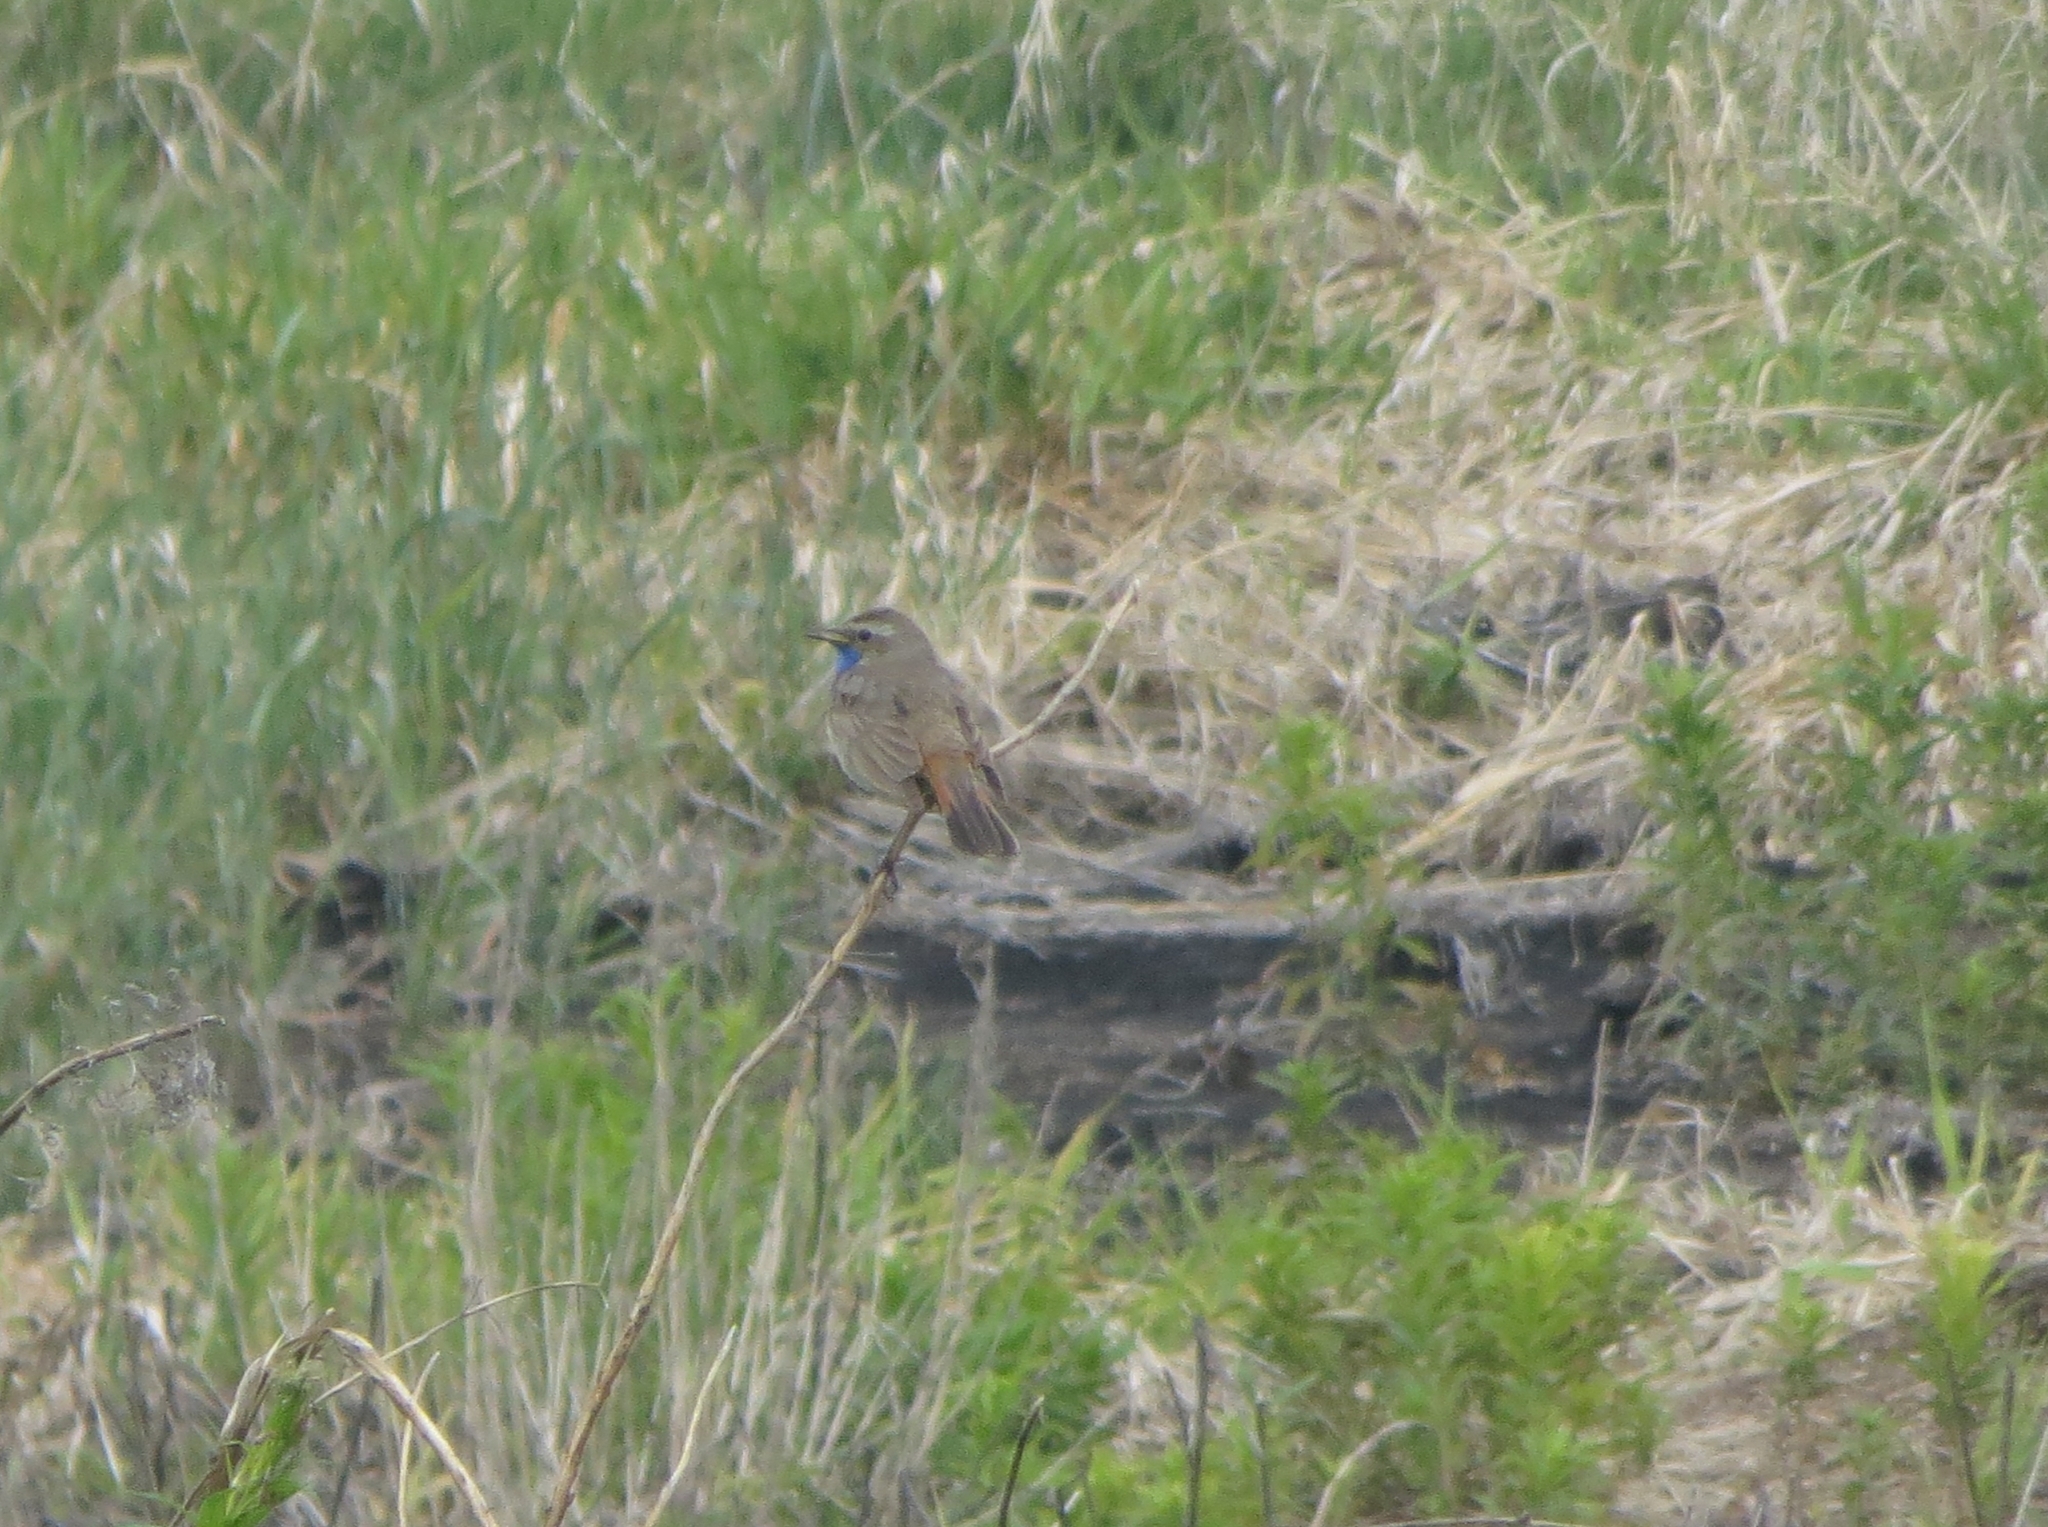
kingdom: Animalia
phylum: Chordata
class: Aves
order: Passeriformes
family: Muscicapidae
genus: Luscinia
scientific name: Luscinia svecica
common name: Bluethroat
